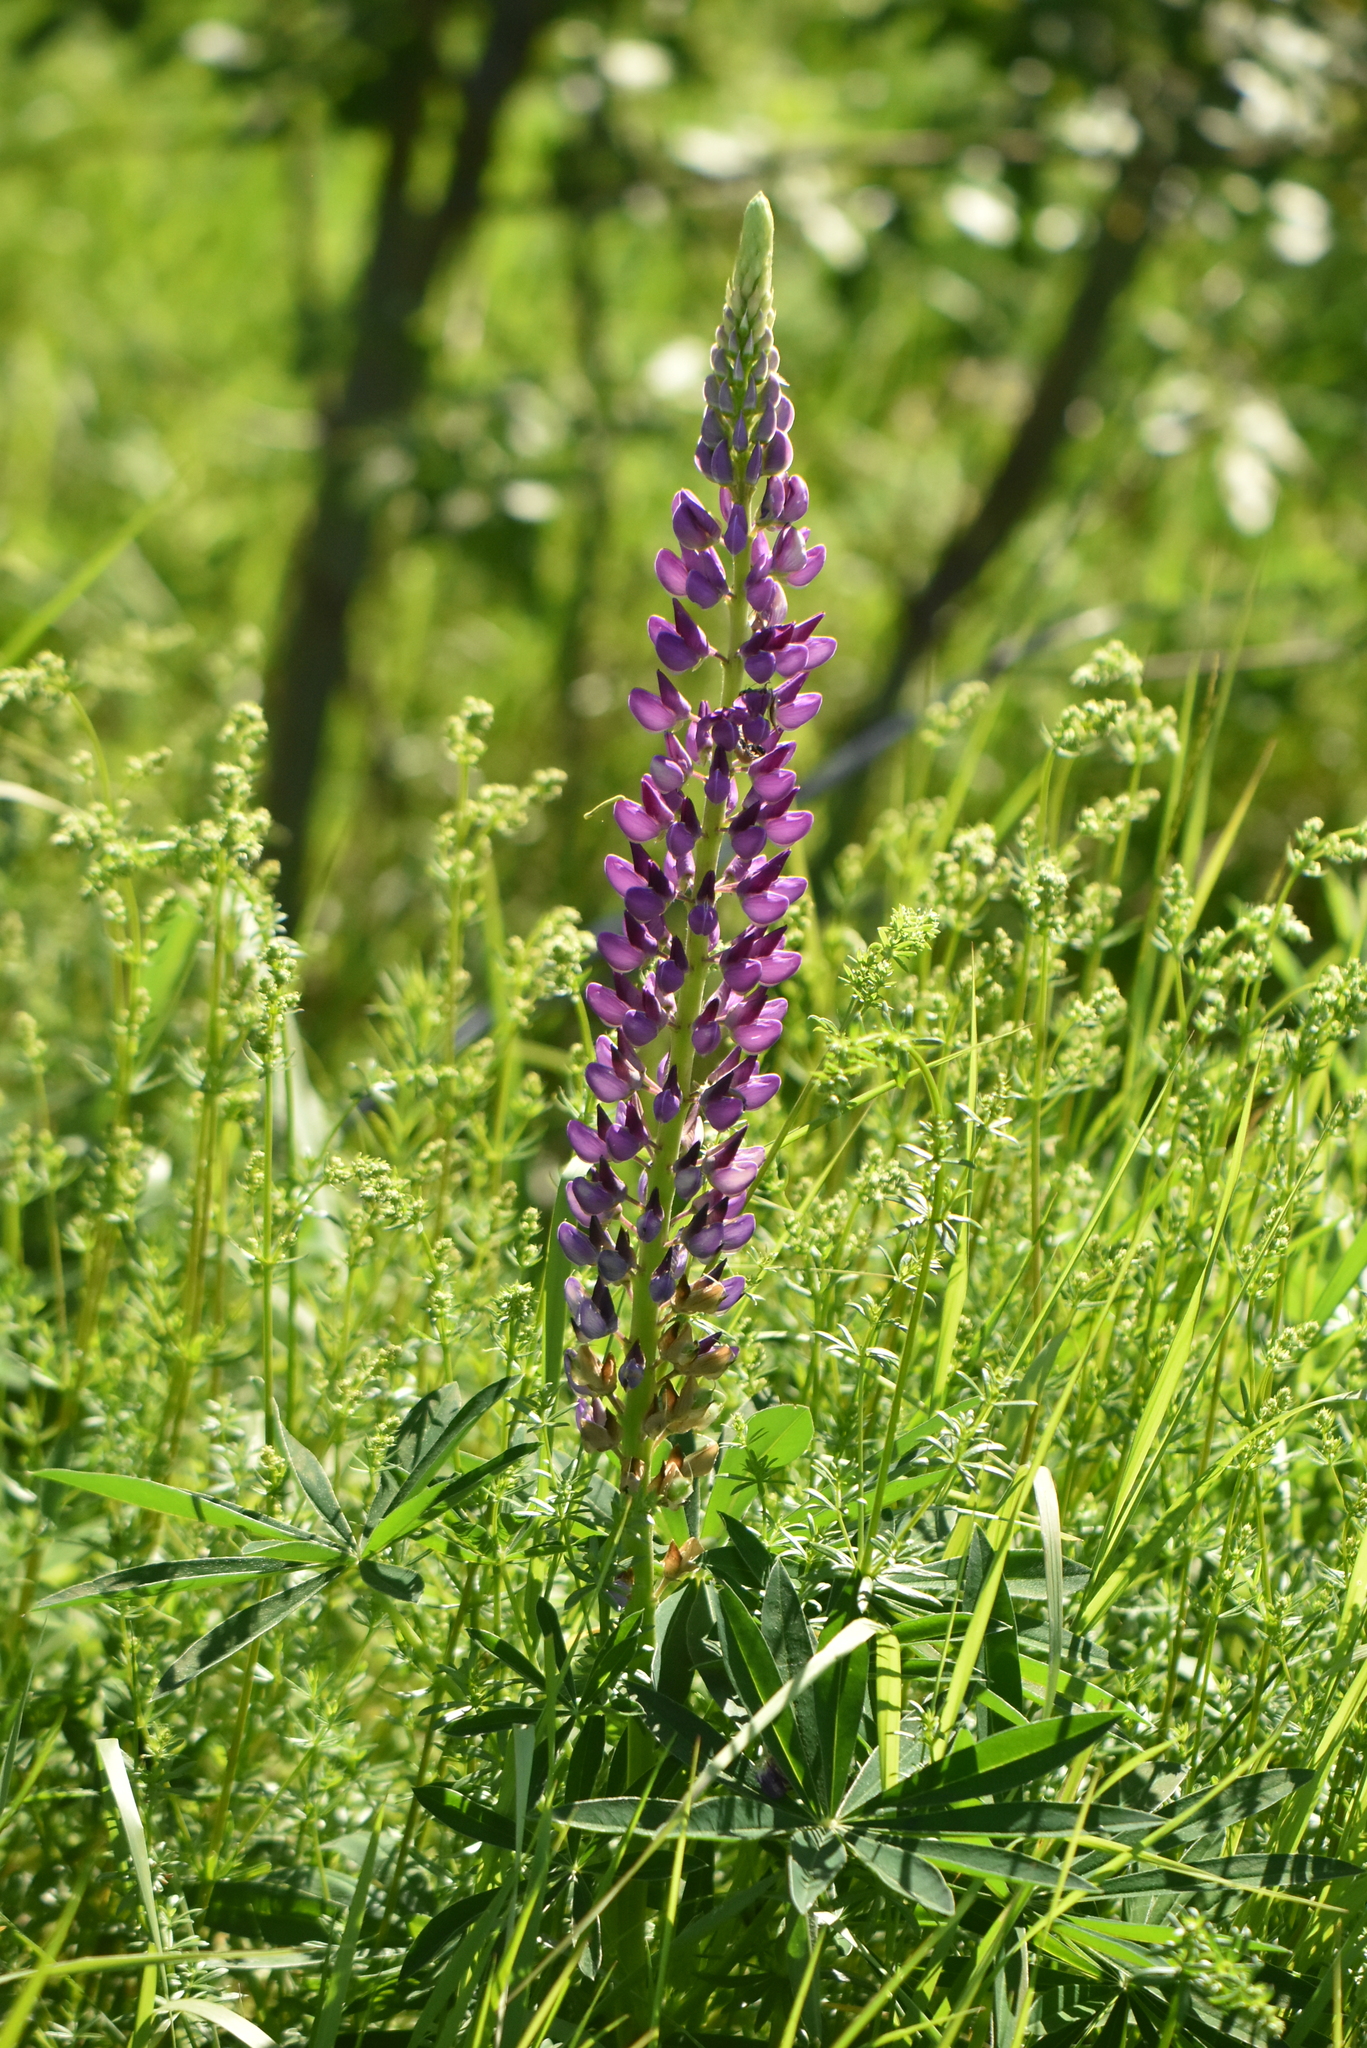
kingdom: Plantae
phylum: Tracheophyta
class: Magnoliopsida
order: Fabales
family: Fabaceae
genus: Lupinus
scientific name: Lupinus polyphyllus
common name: Garden lupin
